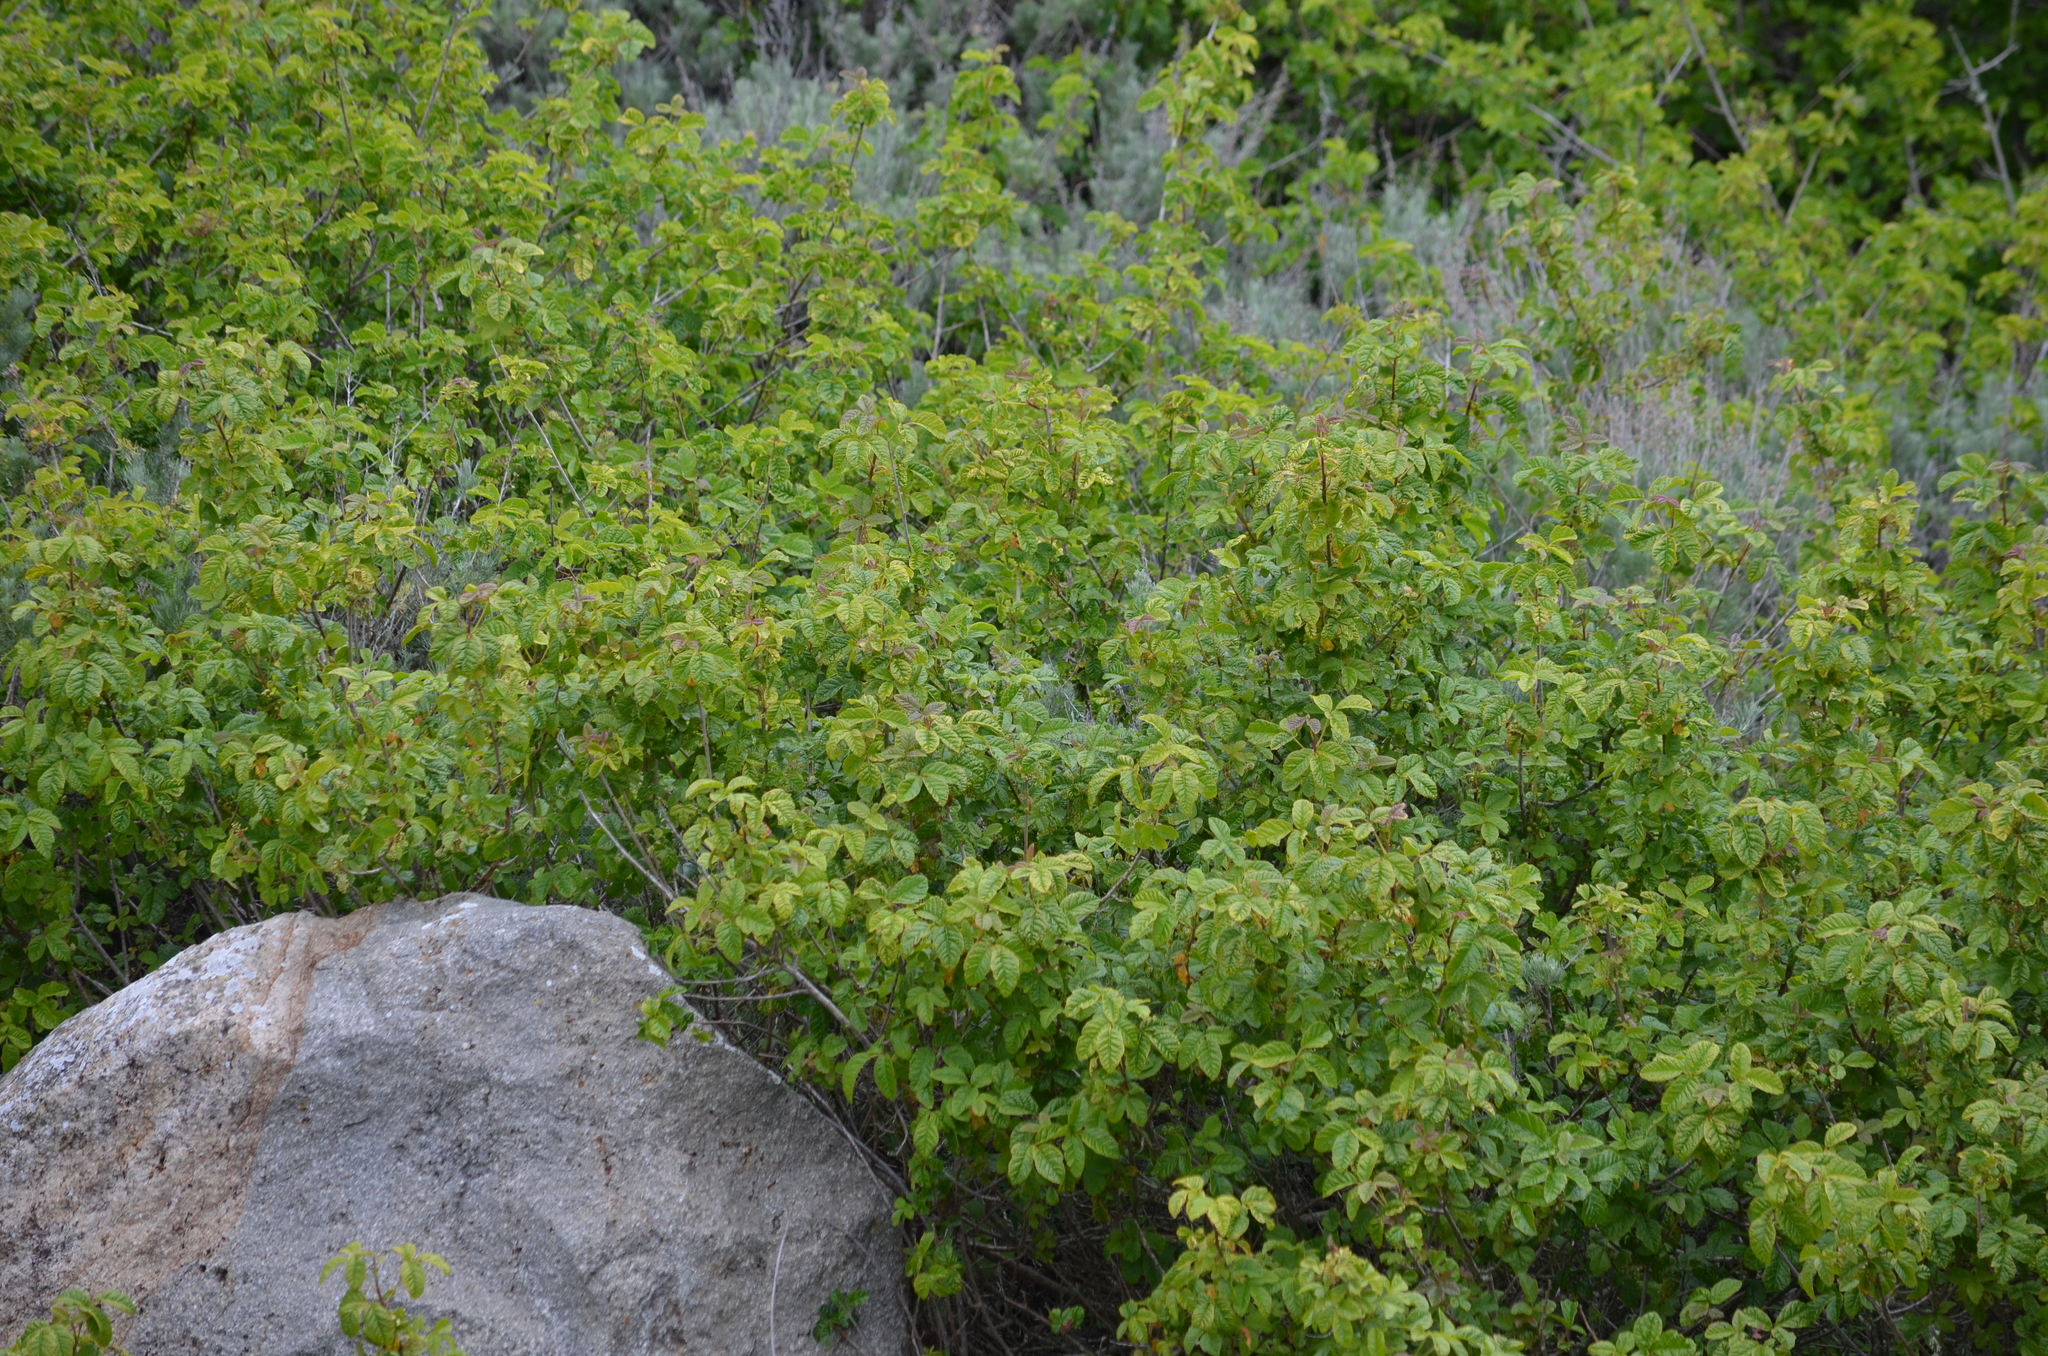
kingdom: Plantae
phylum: Tracheophyta
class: Magnoliopsida
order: Sapindales
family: Anacardiaceae
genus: Toxicodendron
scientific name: Toxicodendron diversilobum
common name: Pacific poison-oak
